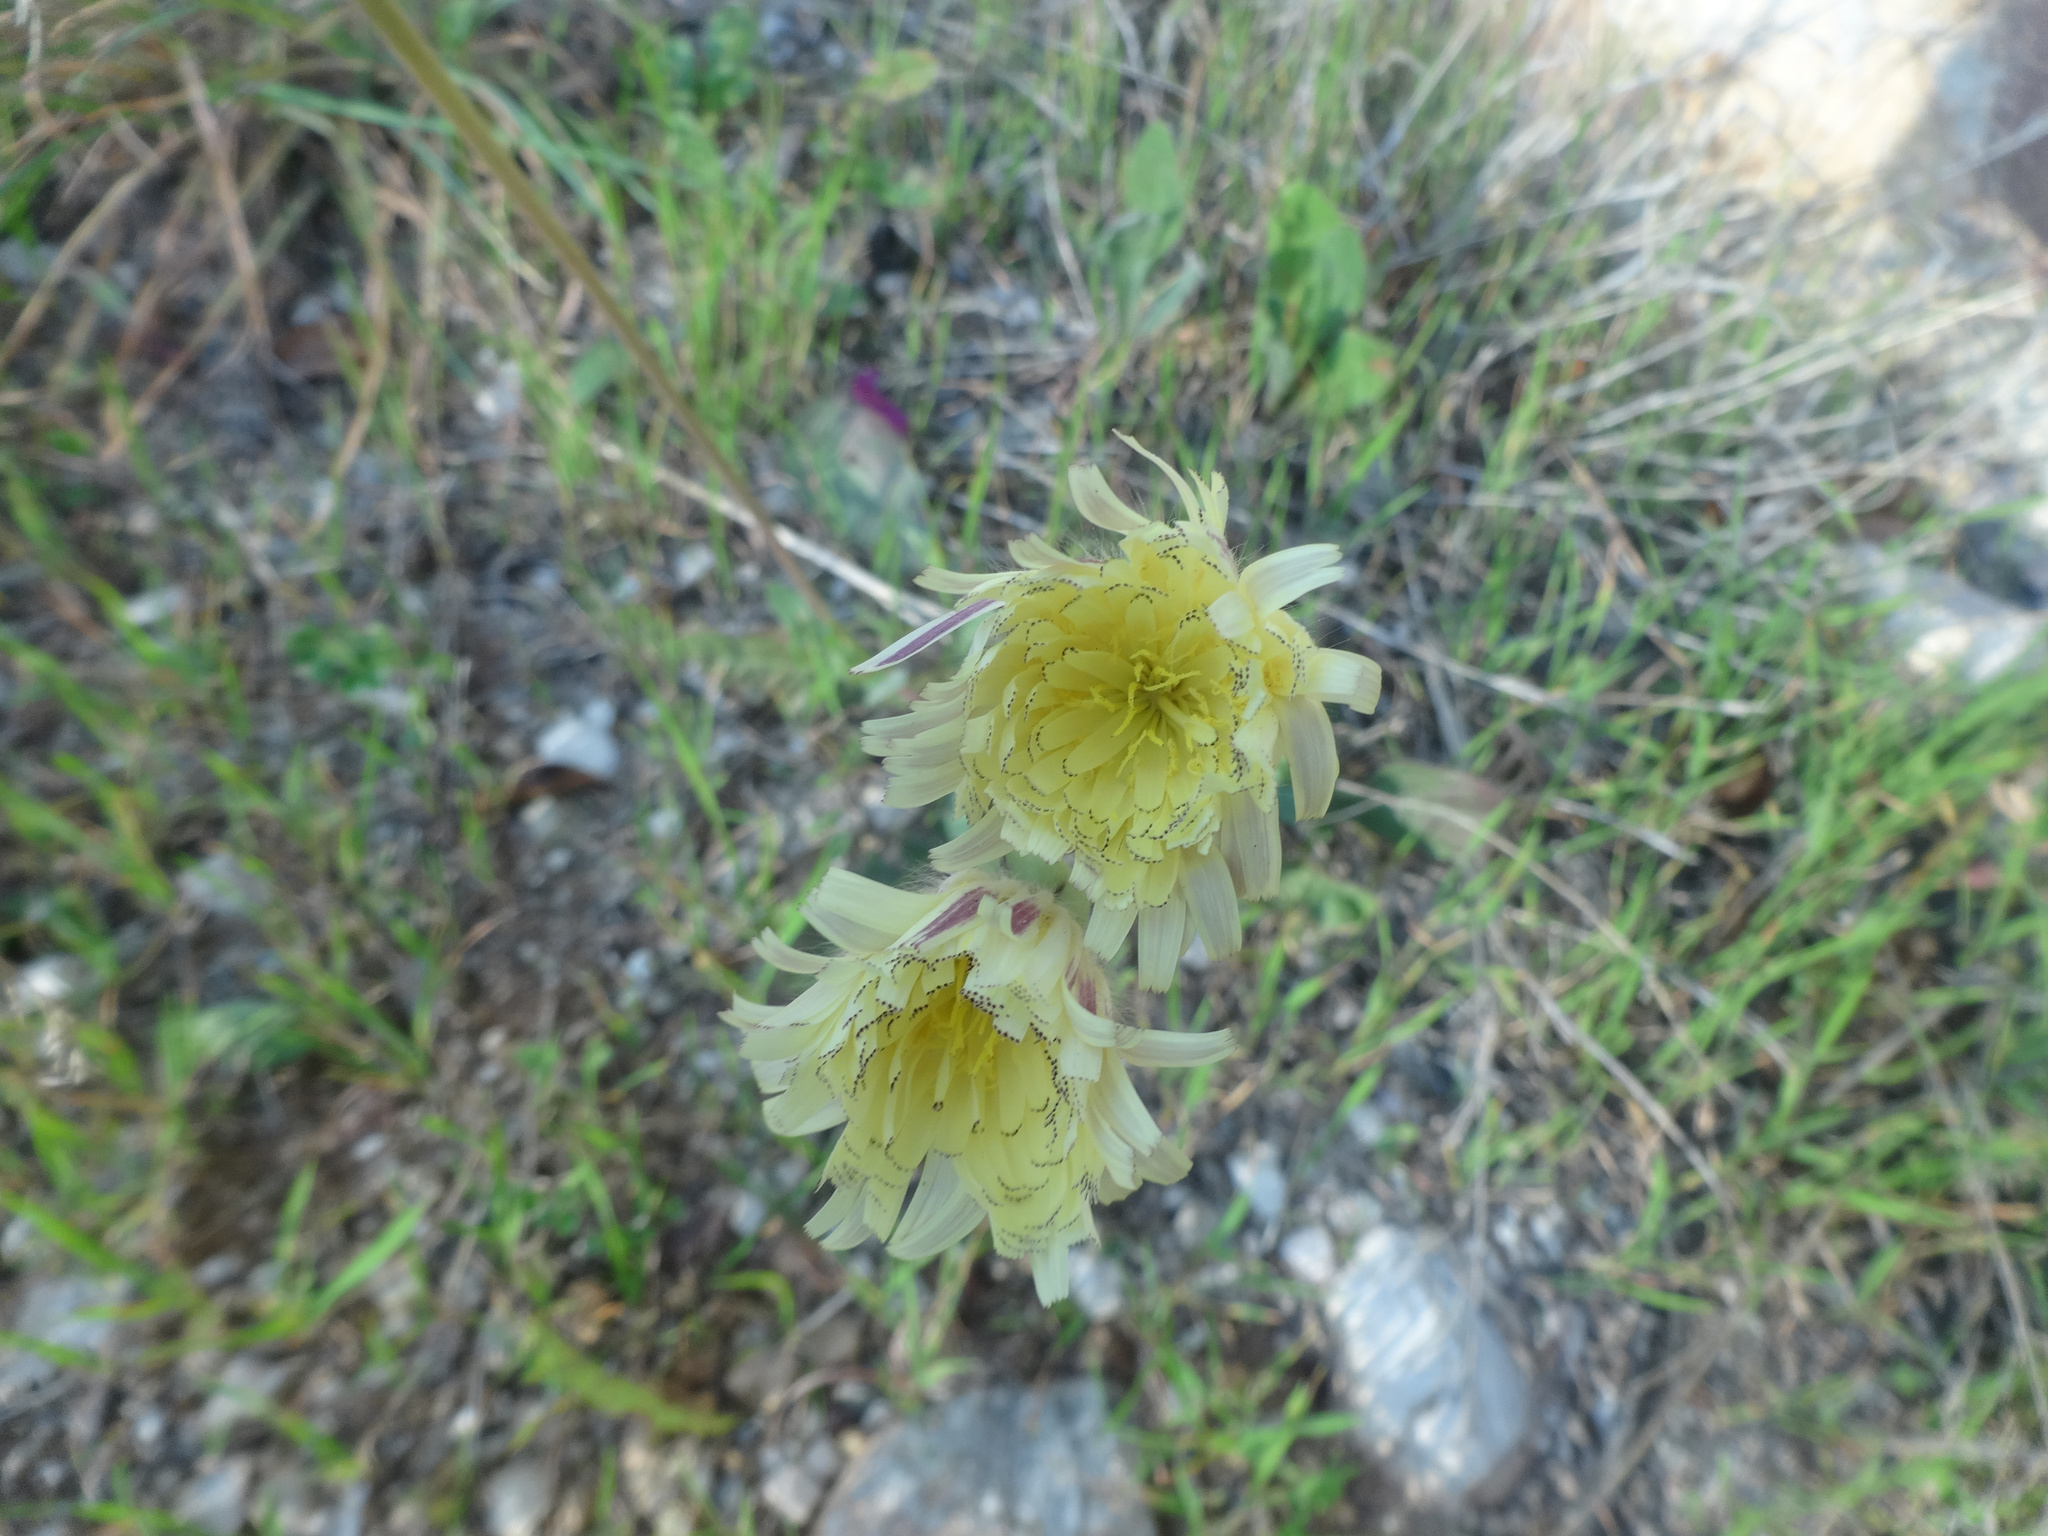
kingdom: Plantae
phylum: Tracheophyta
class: Magnoliopsida
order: Asterales
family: Asteraceae
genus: Urospermum
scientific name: Urospermum dalechampii
